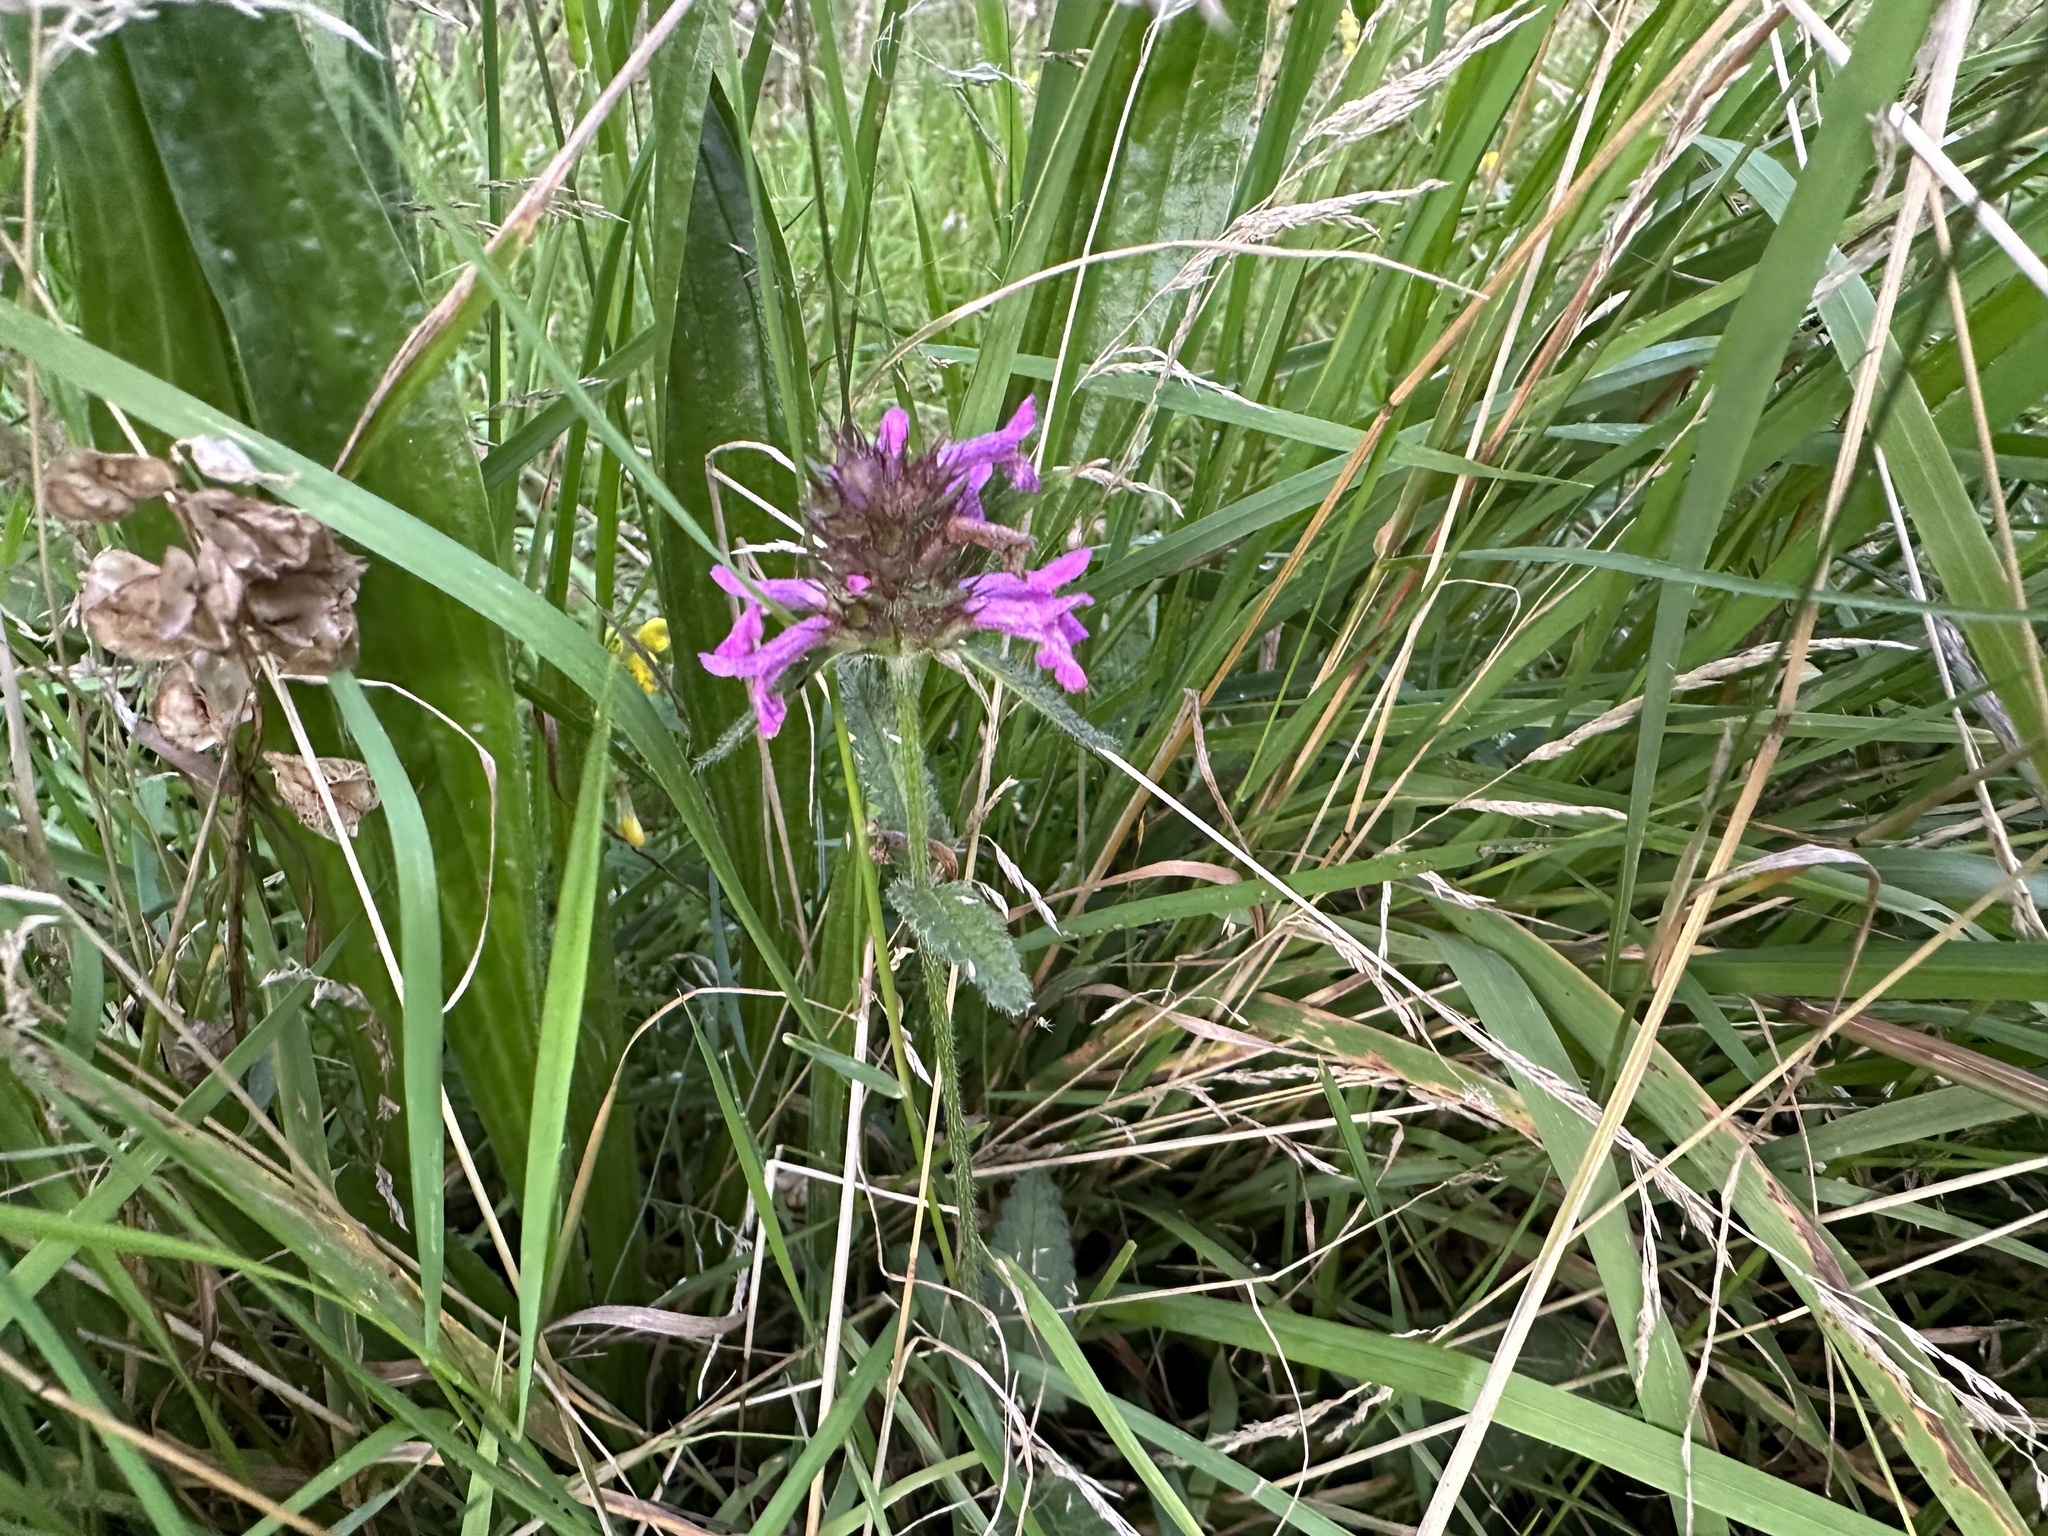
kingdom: Plantae
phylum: Tracheophyta
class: Magnoliopsida
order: Lamiales
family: Lamiaceae
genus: Betonica
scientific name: Betonica officinalis
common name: Bishop's-wort
